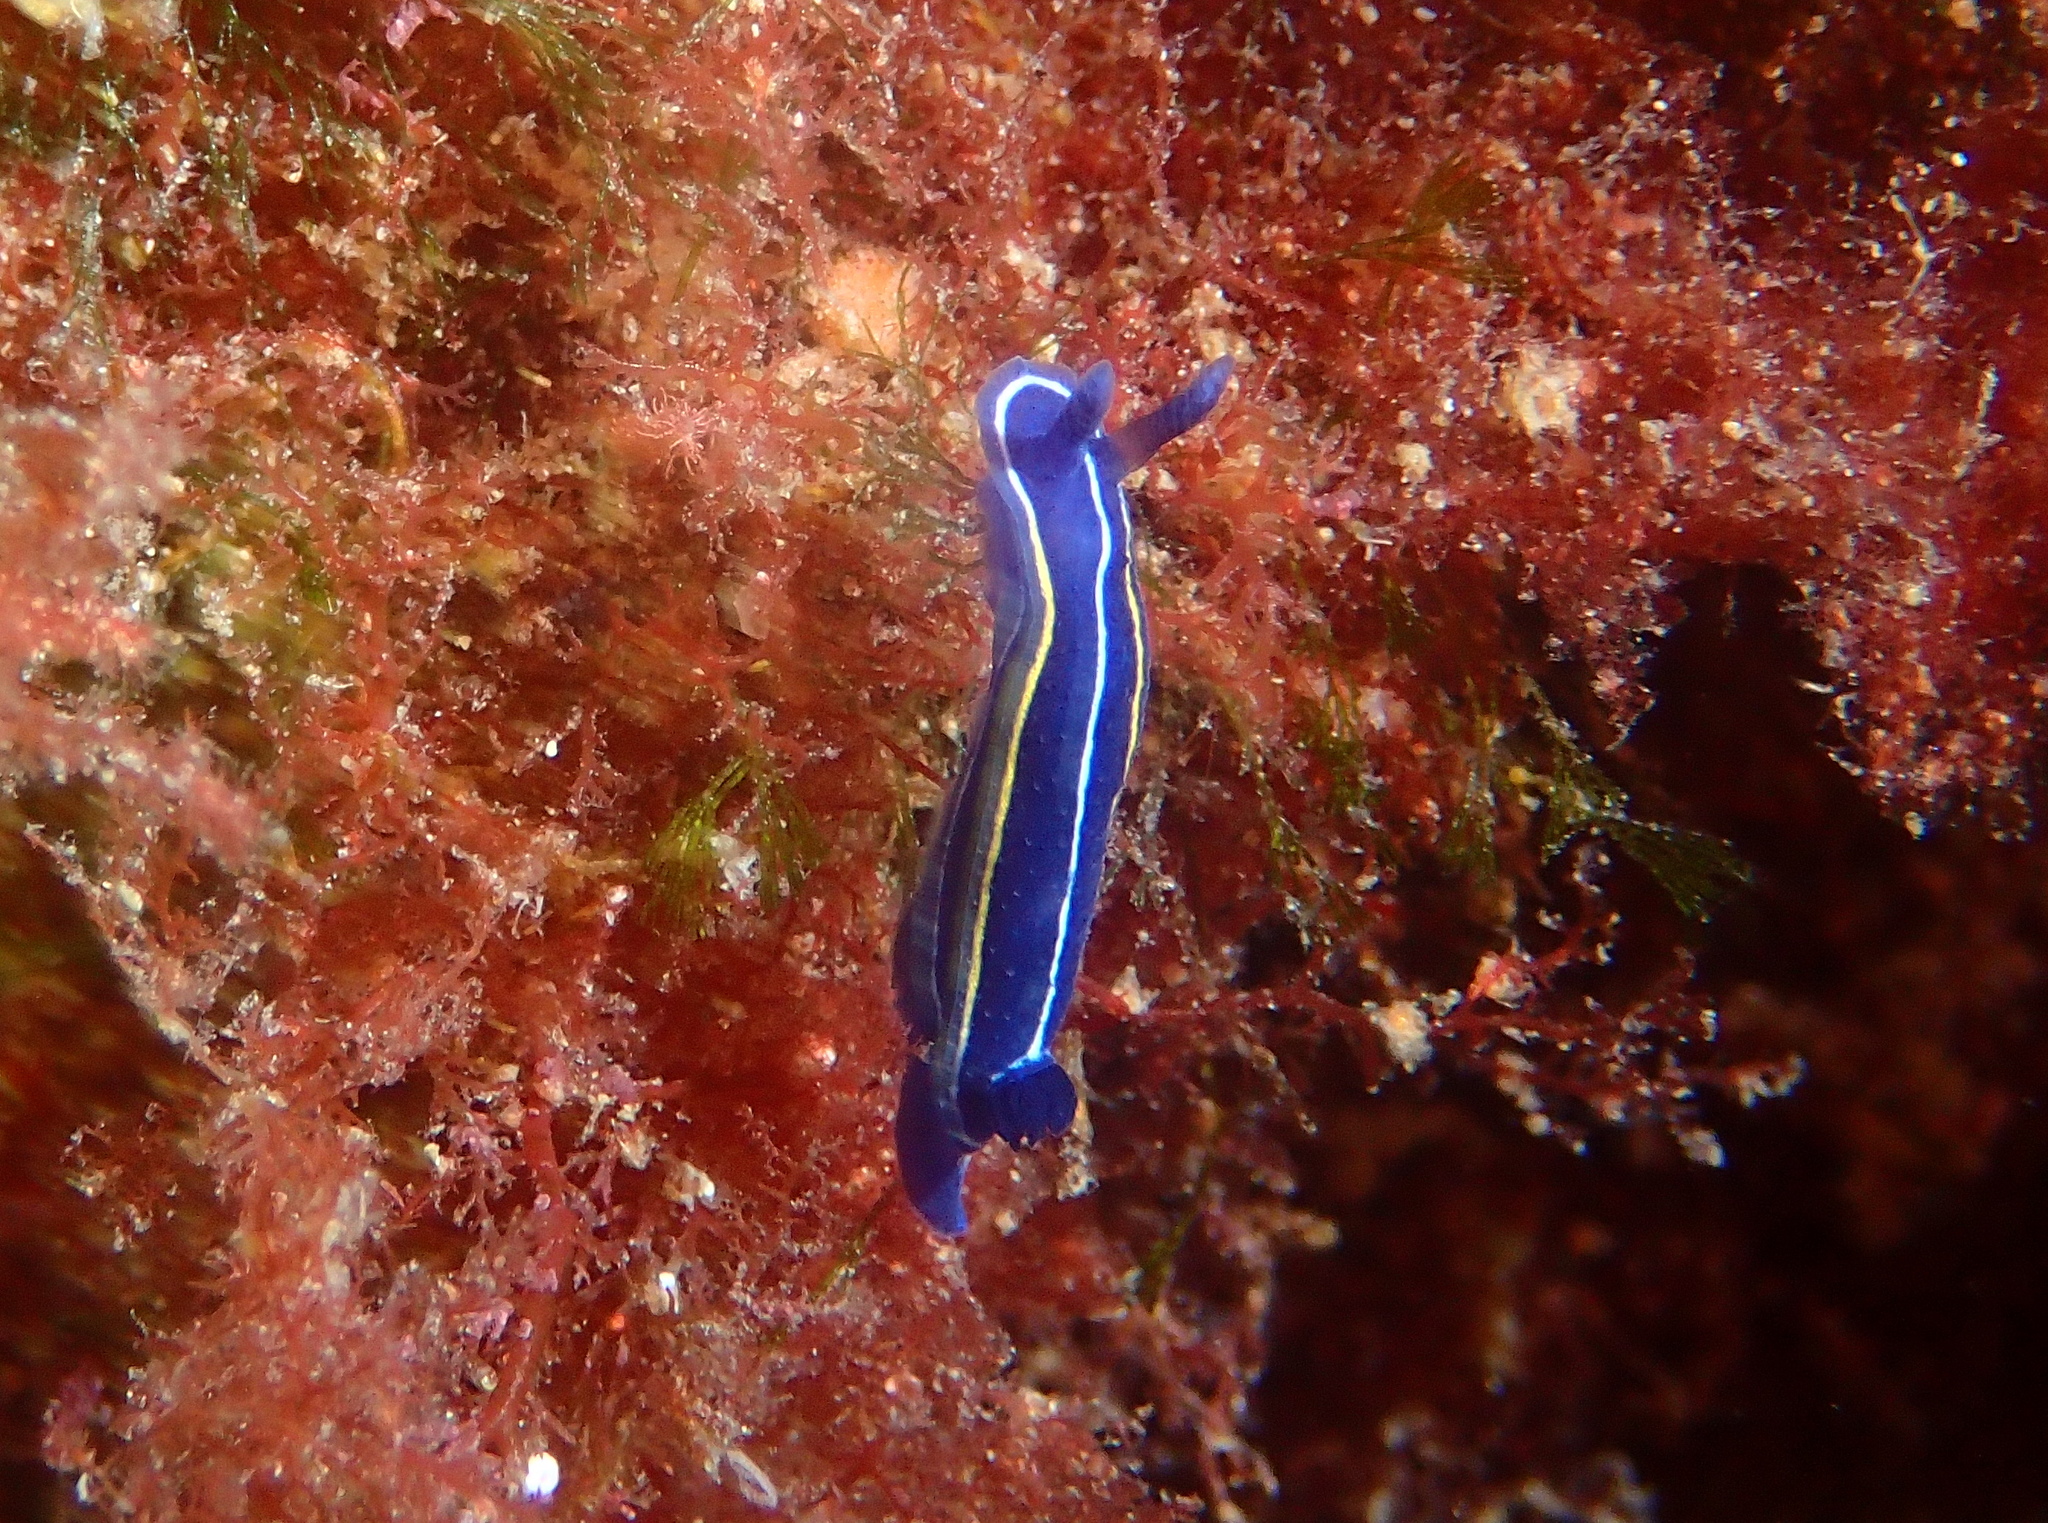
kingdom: Animalia
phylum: Mollusca
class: Gastropoda
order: Nudibranchia
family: Chromodorididae
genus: Felimare
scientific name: Felimare orsinii
